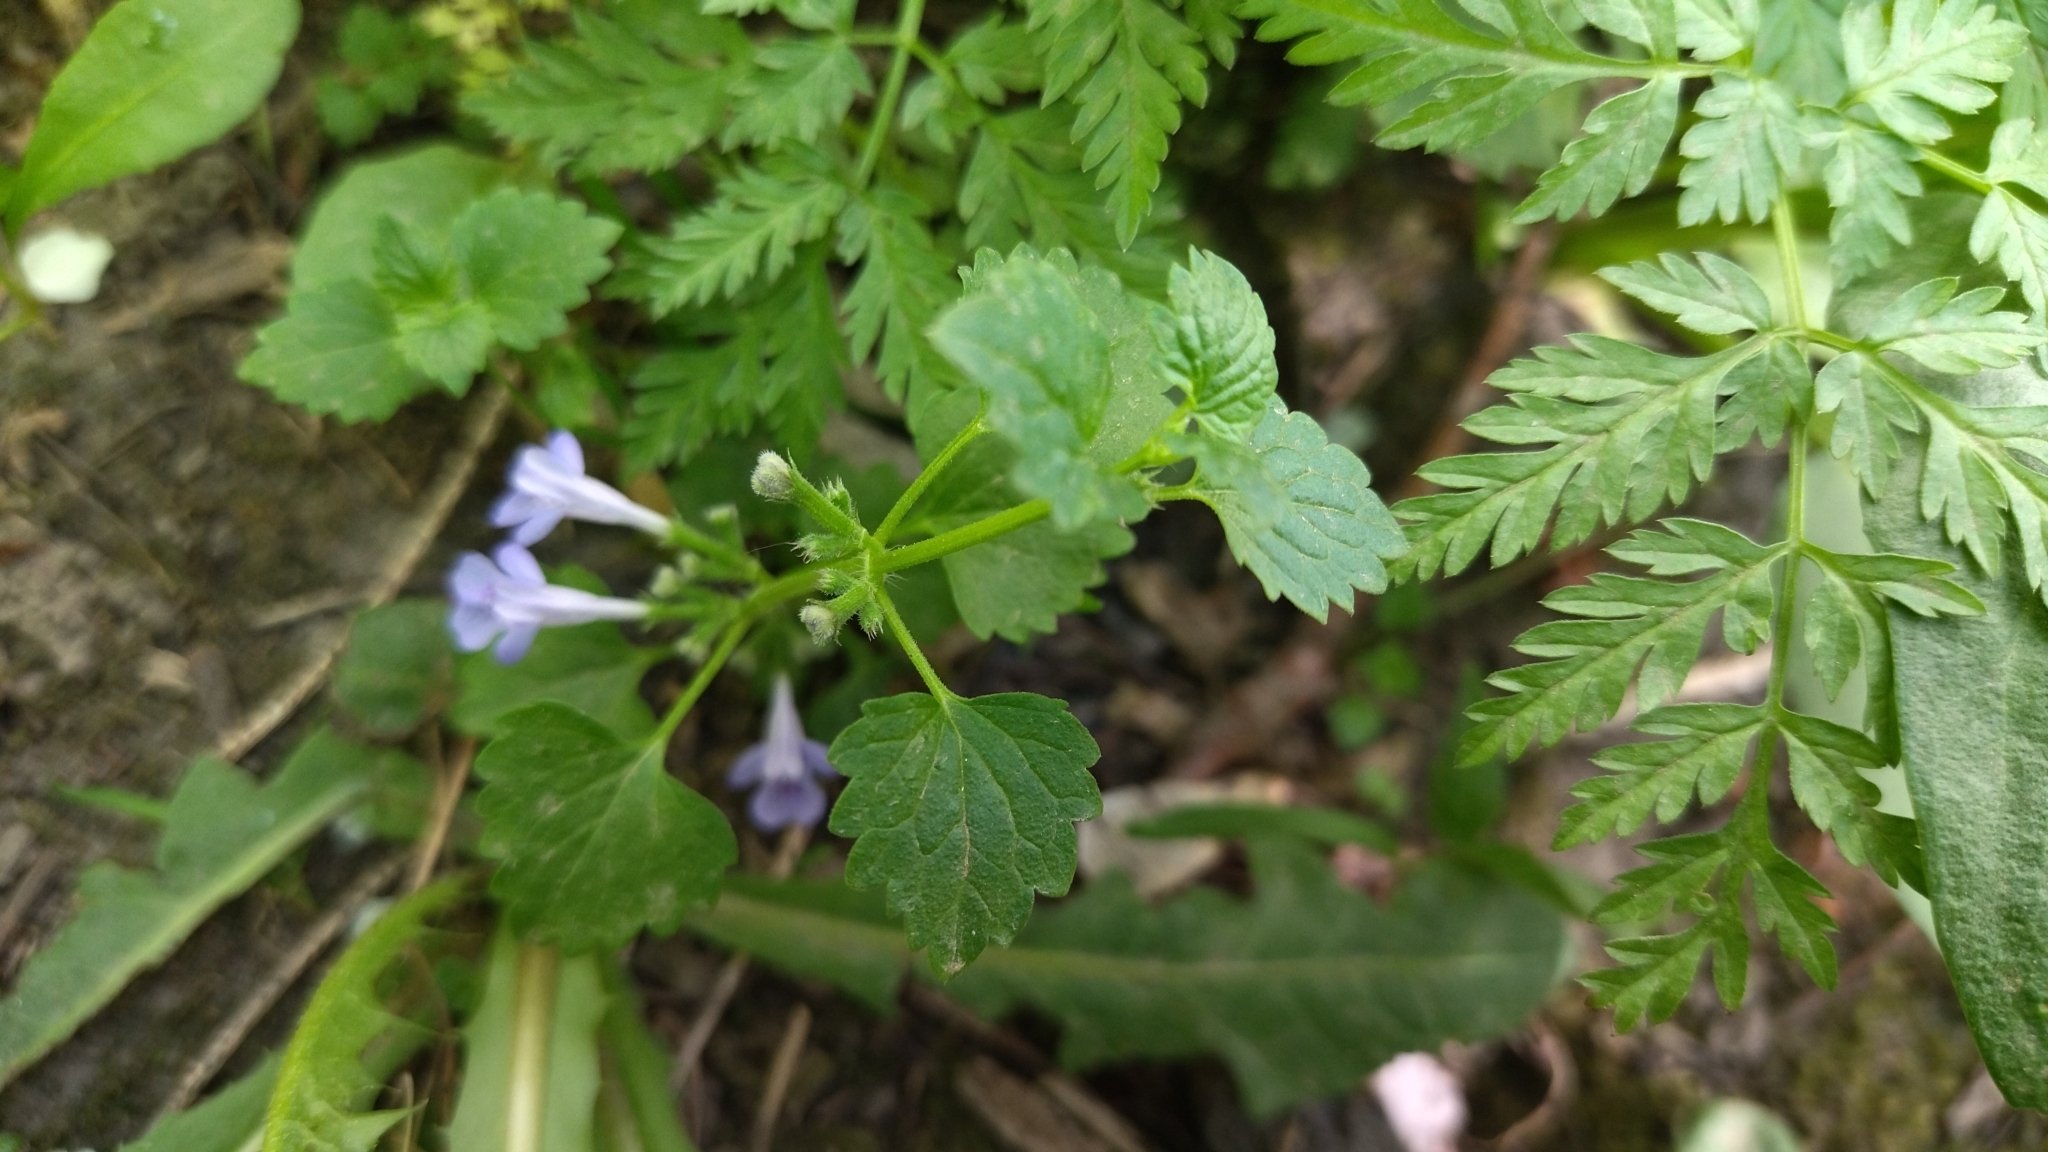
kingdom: Plantae
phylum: Tracheophyta
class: Magnoliopsida
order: Lamiales
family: Lamiaceae
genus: Glechoma
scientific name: Glechoma hederacea
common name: Ground ivy
